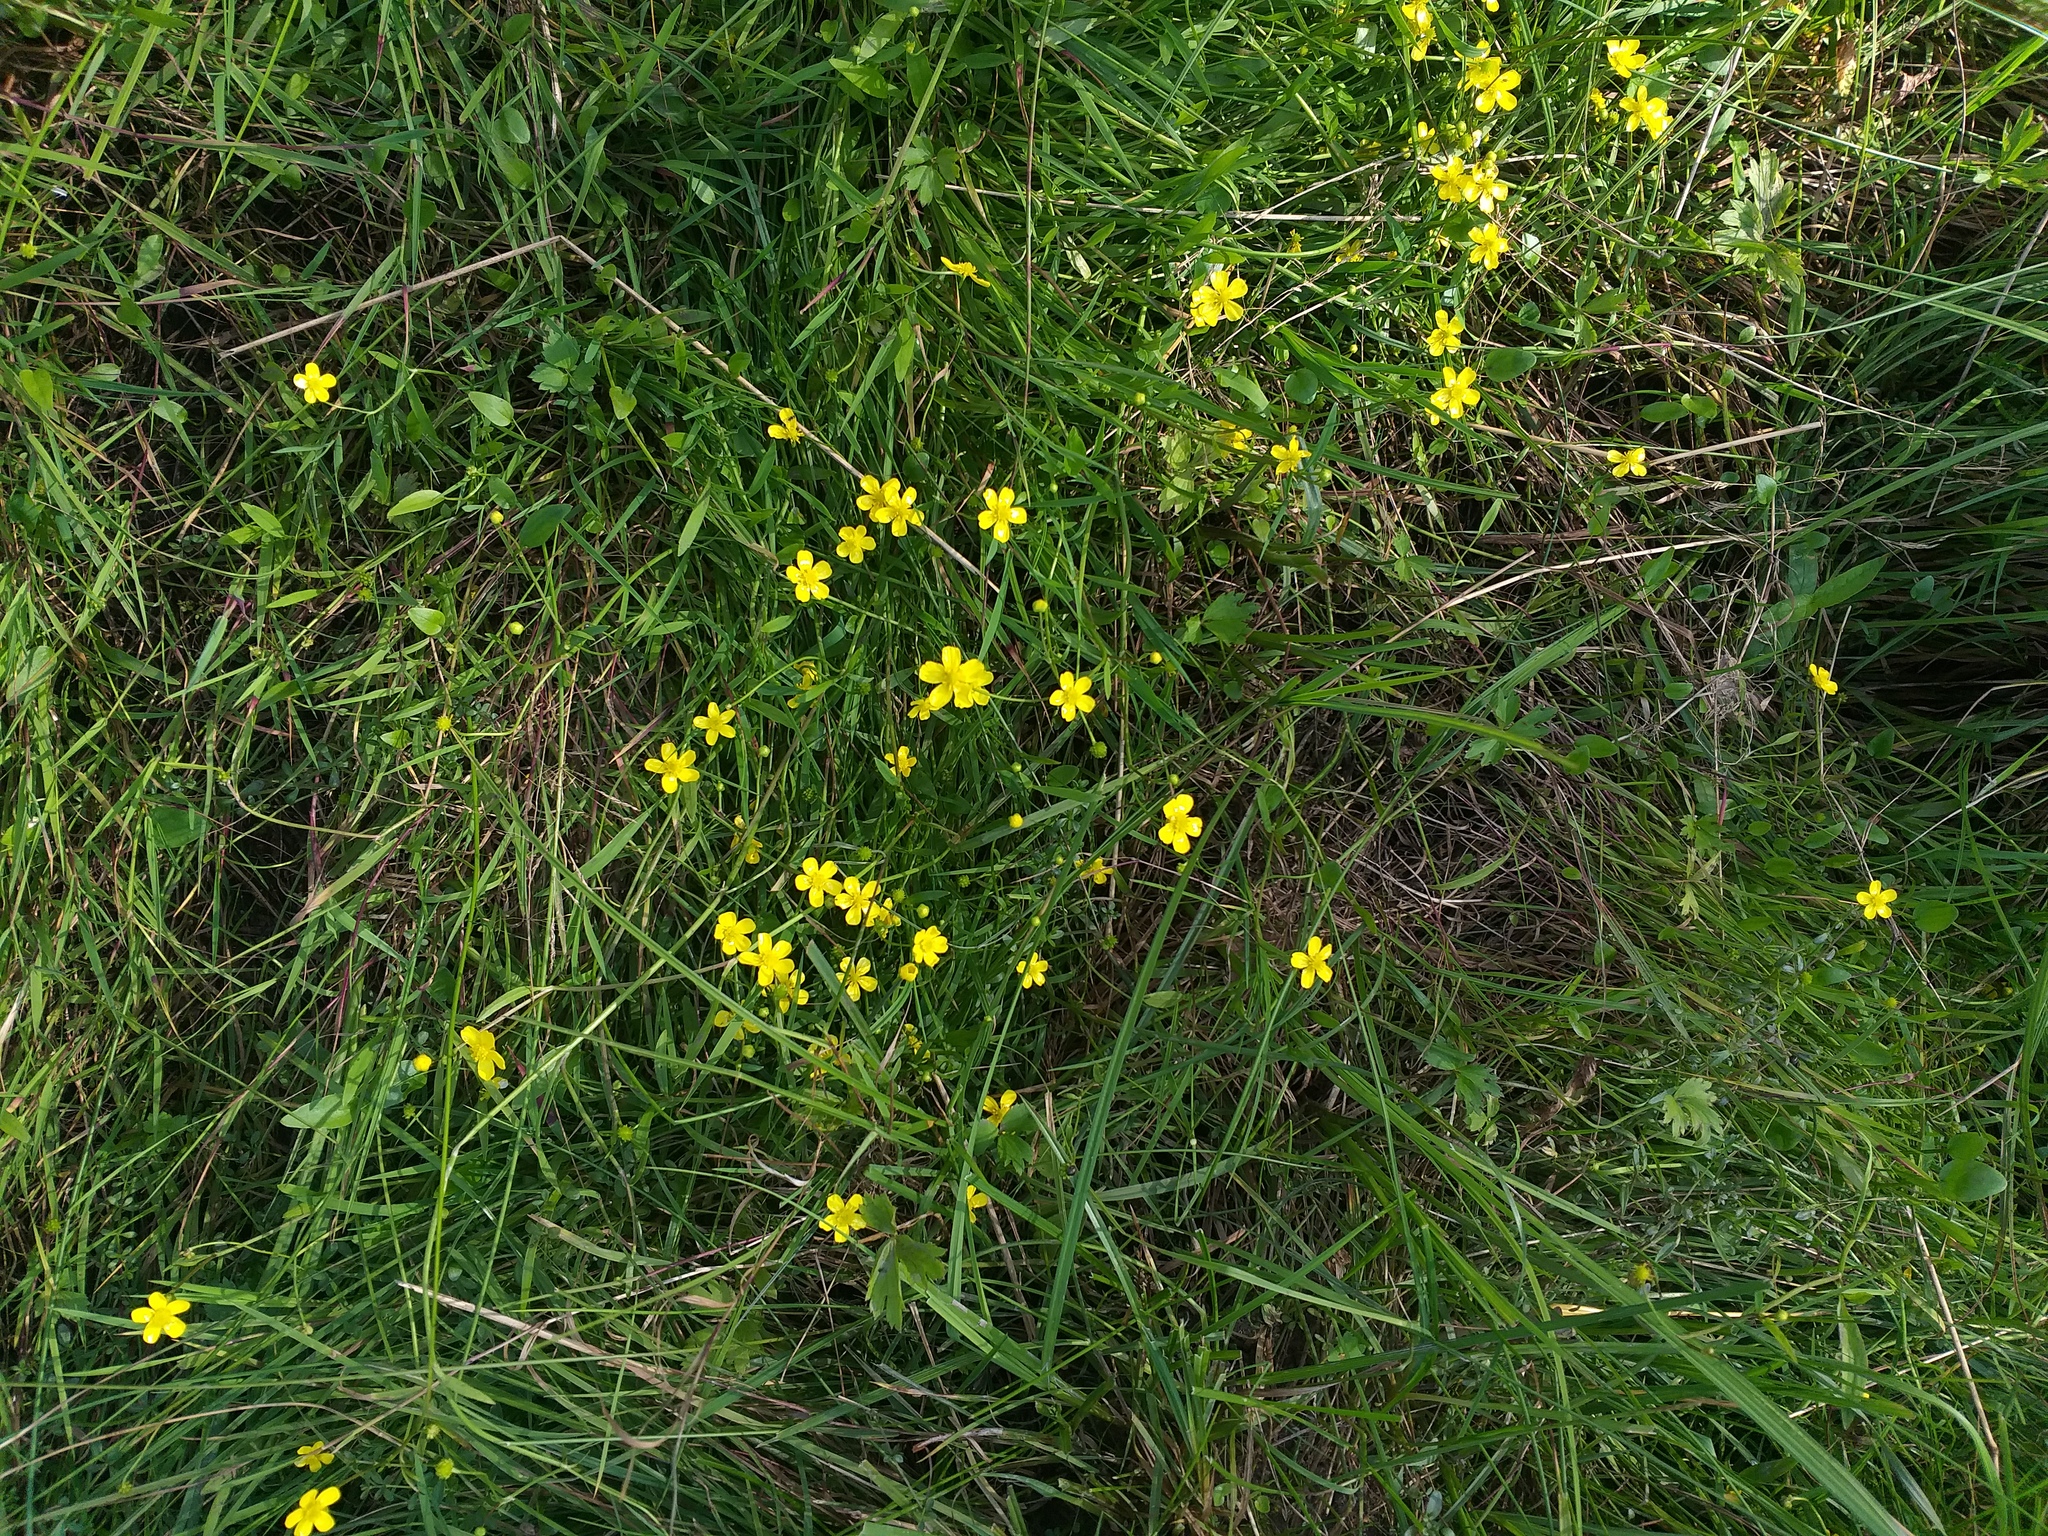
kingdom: Plantae
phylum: Tracheophyta
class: Magnoliopsida
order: Ranunculales
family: Ranunculaceae
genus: Ranunculus
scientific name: Ranunculus flammula
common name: Lesser spearwort
